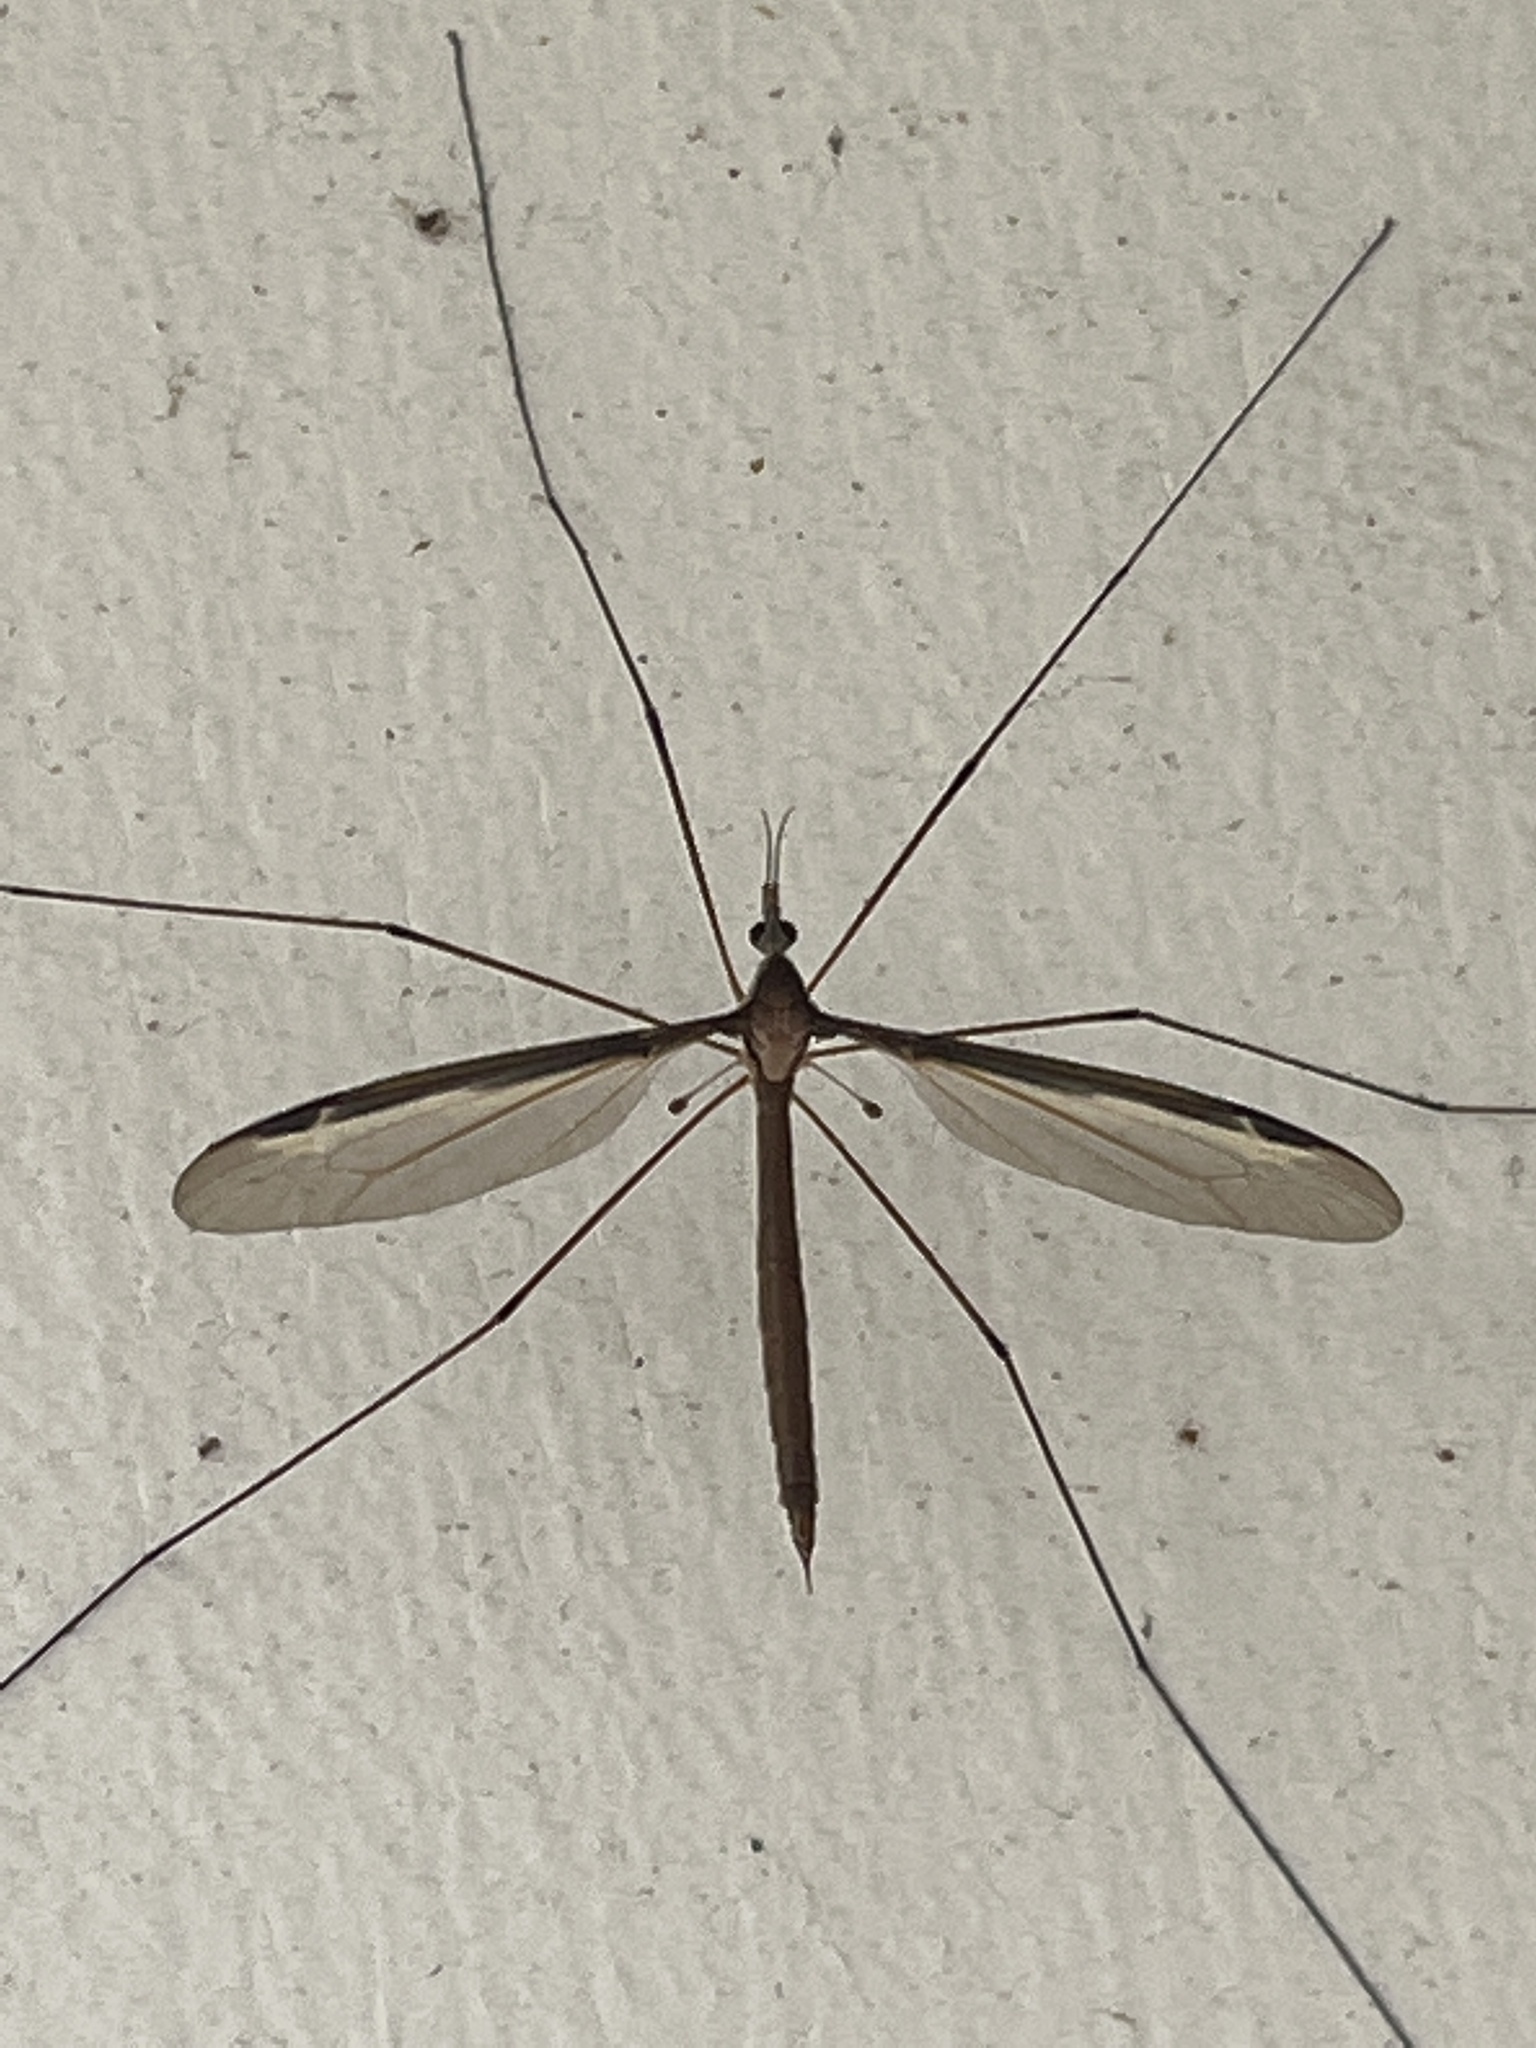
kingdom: Animalia
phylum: Arthropoda
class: Insecta
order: Diptera
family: Tipulidae
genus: Tipula
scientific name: Tipula sayi
